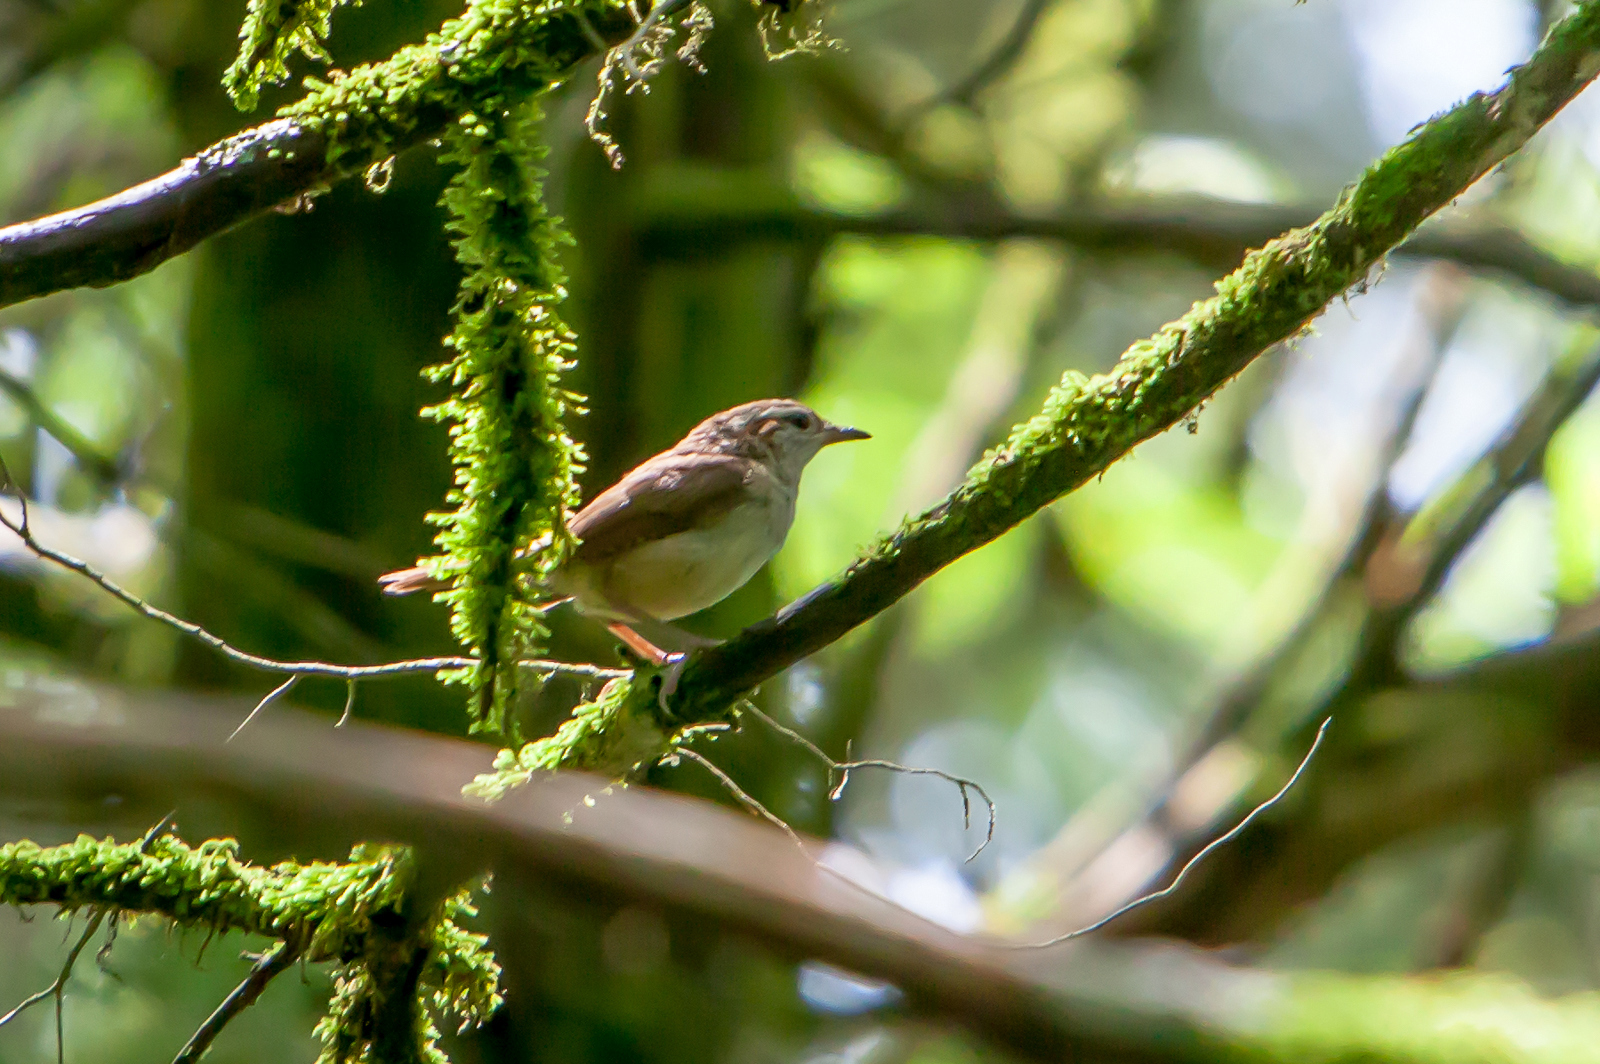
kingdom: Animalia
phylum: Chordata
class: Aves
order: Passeriformes
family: Troglodytidae
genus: Thryothorus
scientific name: Thryothorus ludovicianus
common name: Carolina wren
